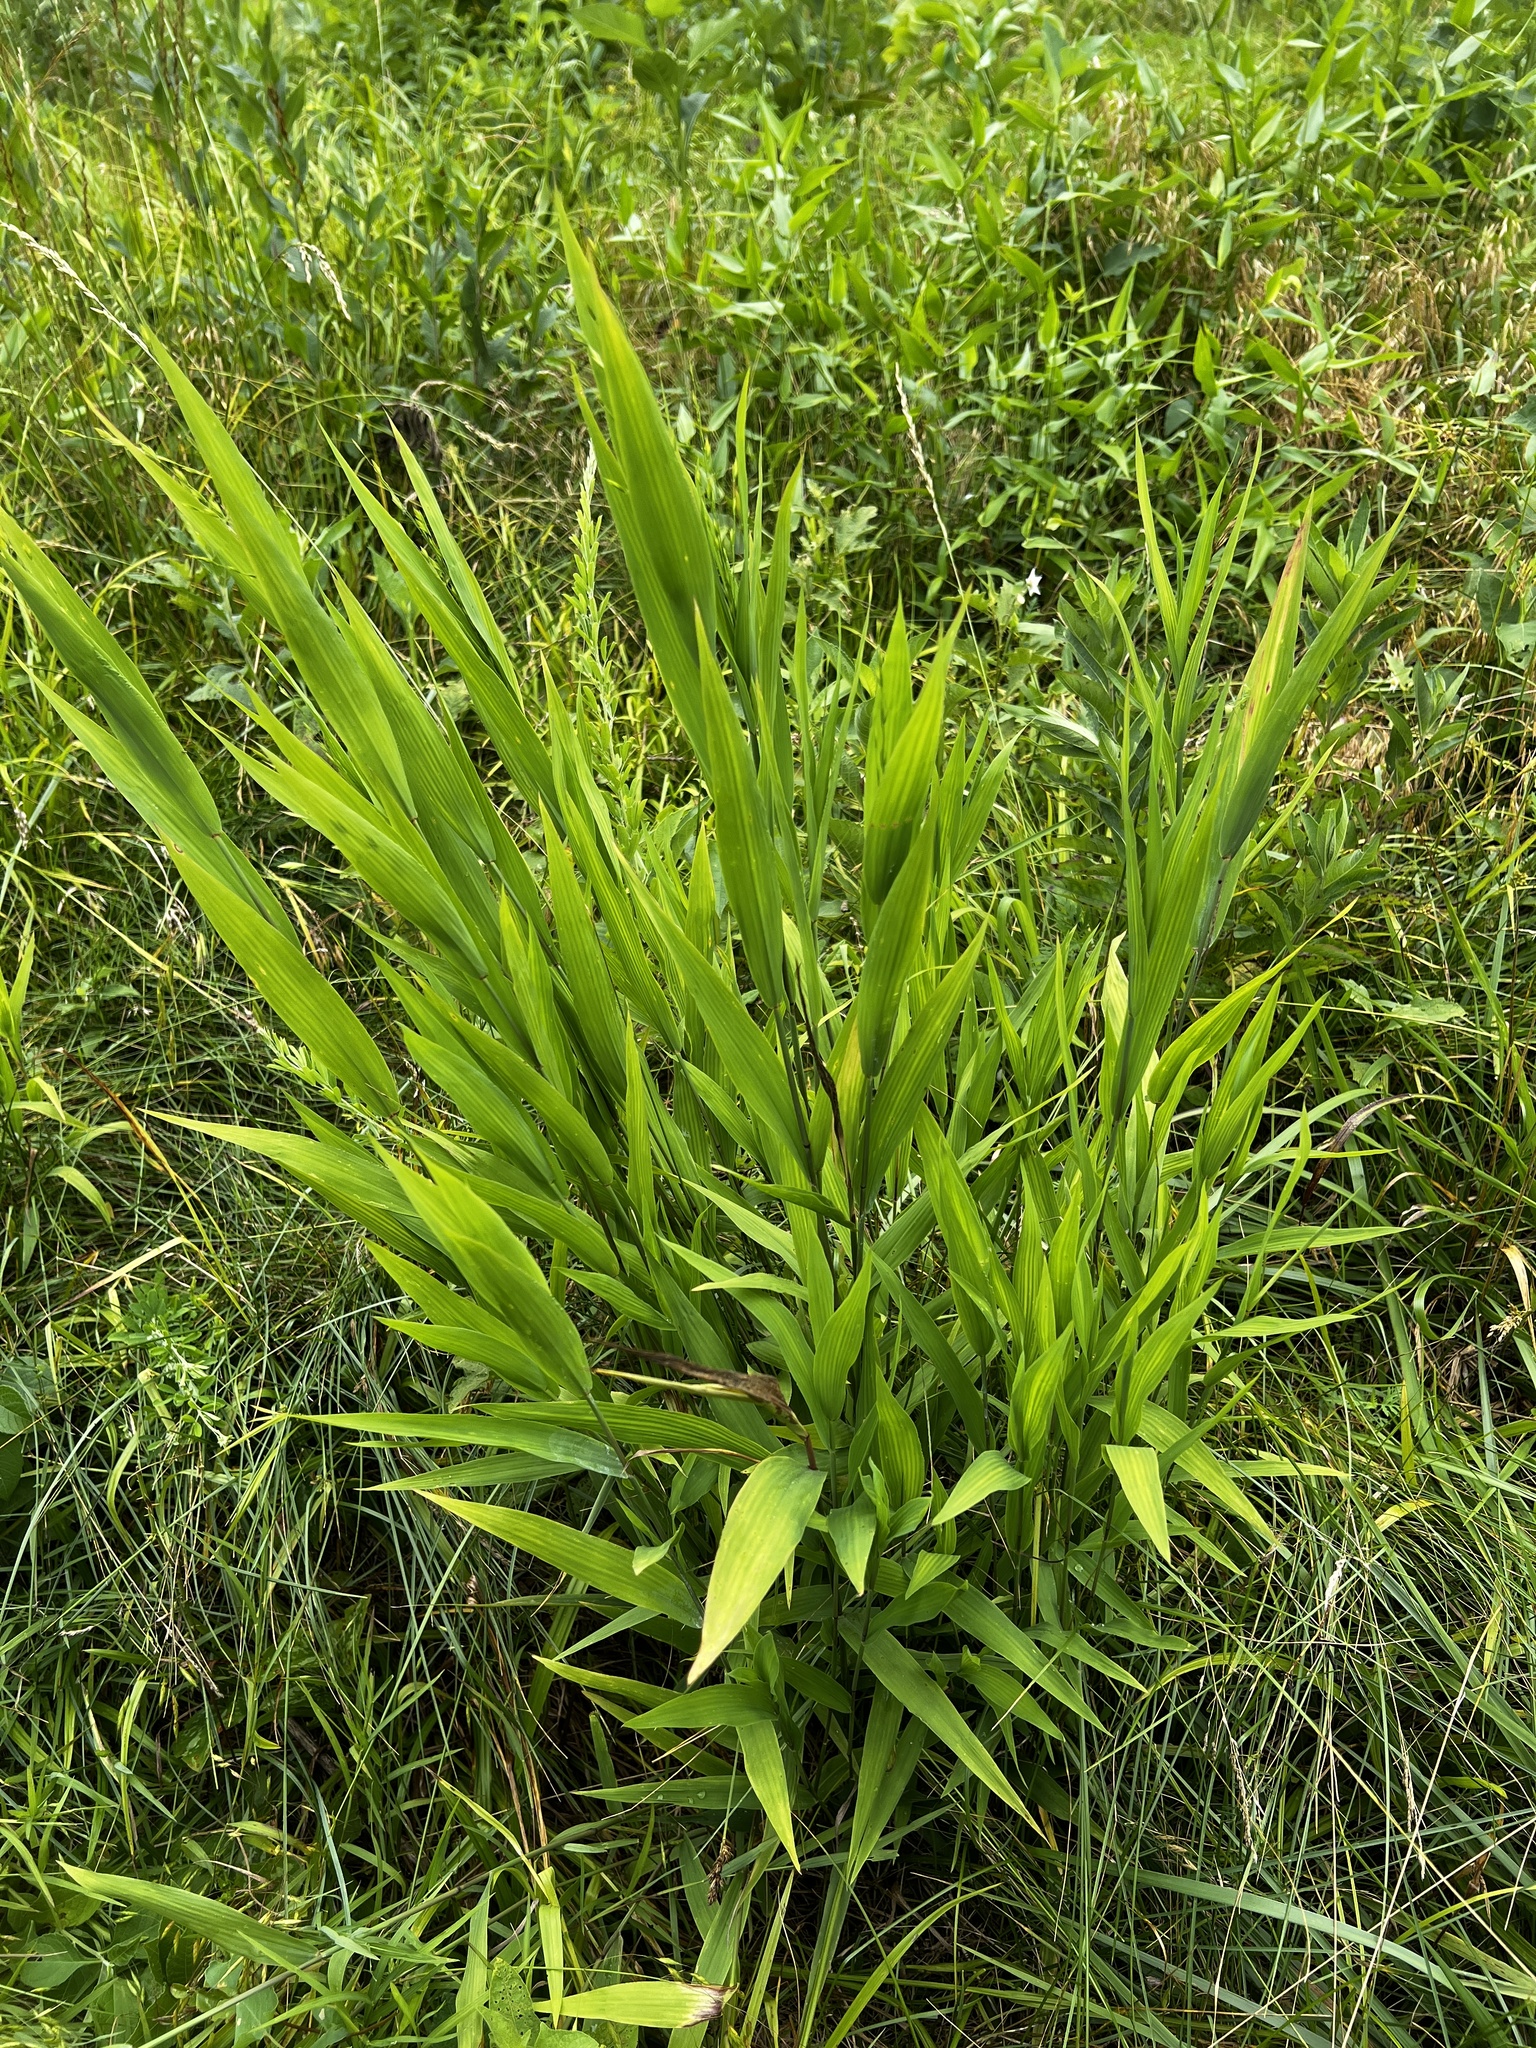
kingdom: Plantae
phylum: Tracheophyta
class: Liliopsida
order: Poales
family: Poaceae
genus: Chasmanthium
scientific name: Chasmanthium latifolium
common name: Broad-leaved chasmanthium
